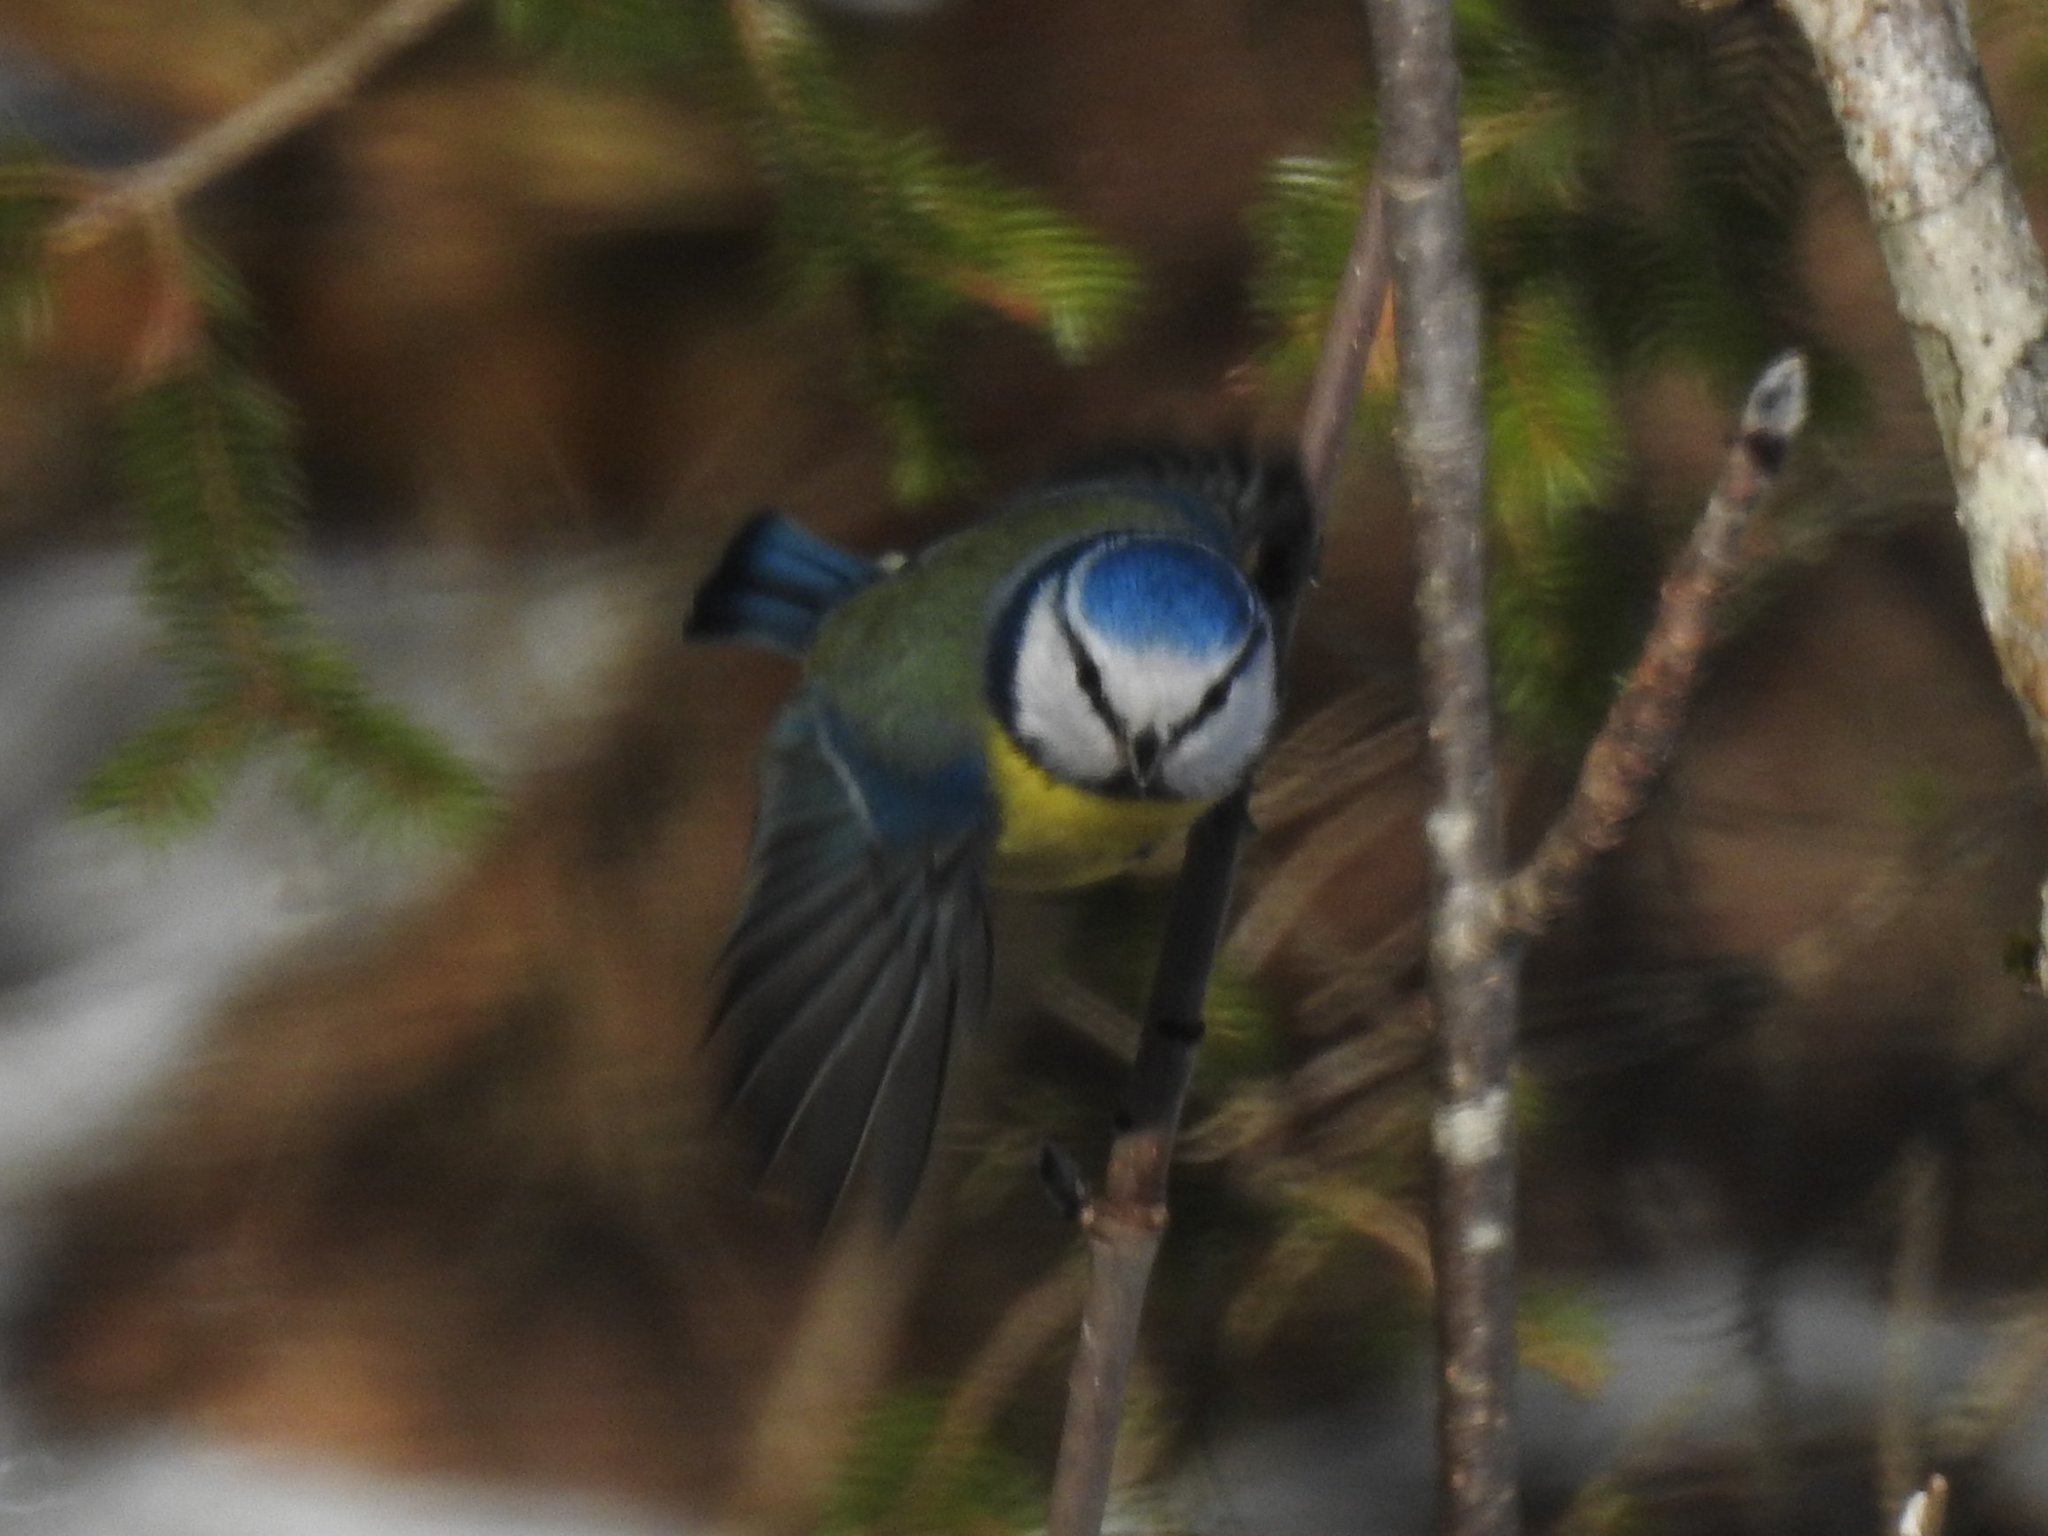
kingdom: Animalia
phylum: Chordata
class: Aves
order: Passeriformes
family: Paridae
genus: Cyanistes
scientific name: Cyanistes caeruleus
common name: Eurasian blue tit
